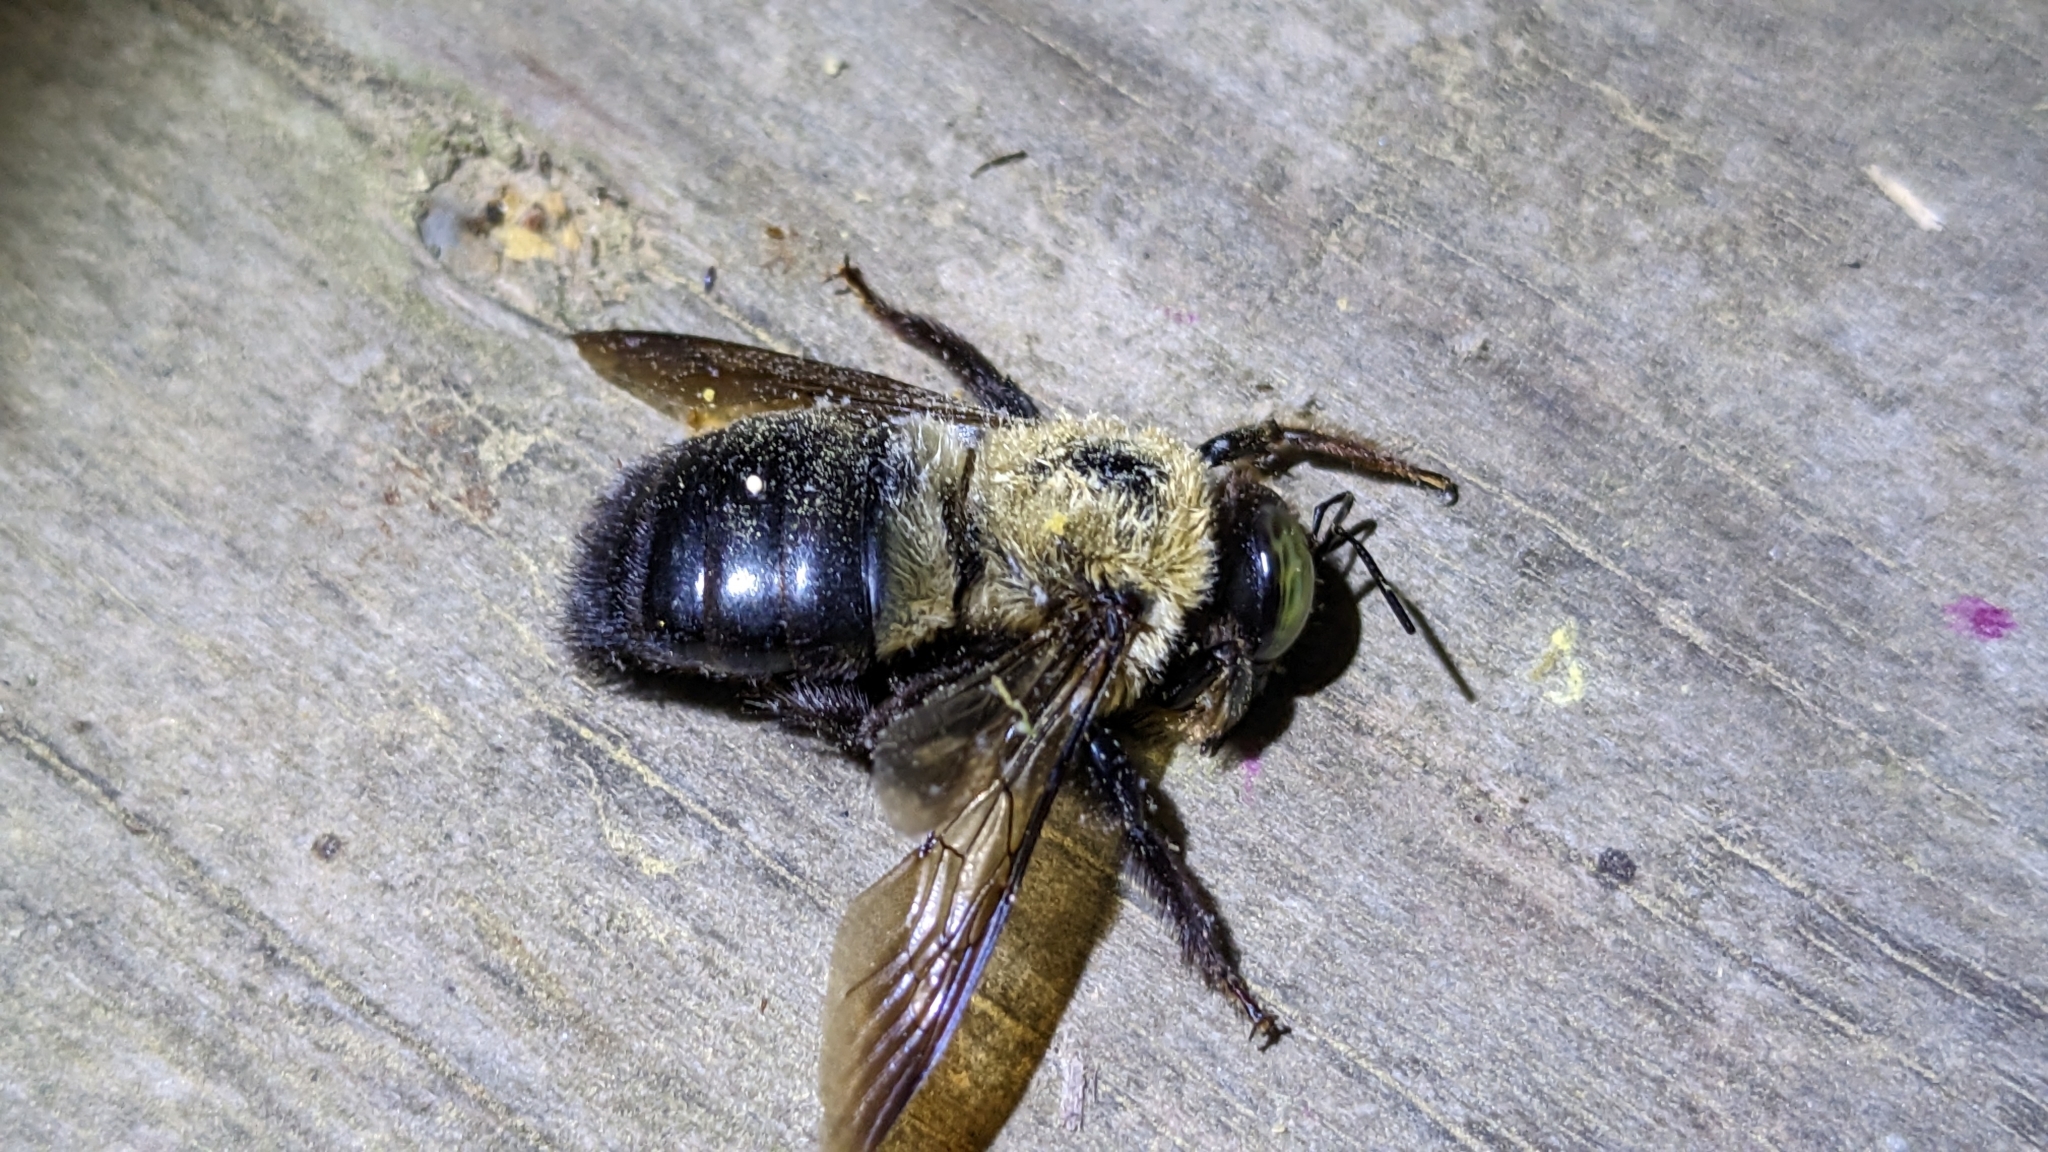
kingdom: Animalia
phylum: Arthropoda
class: Insecta
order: Hymenoptera
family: Apidae
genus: Xylocopa
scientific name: Xylocopa virginica
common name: Carpenter bee
